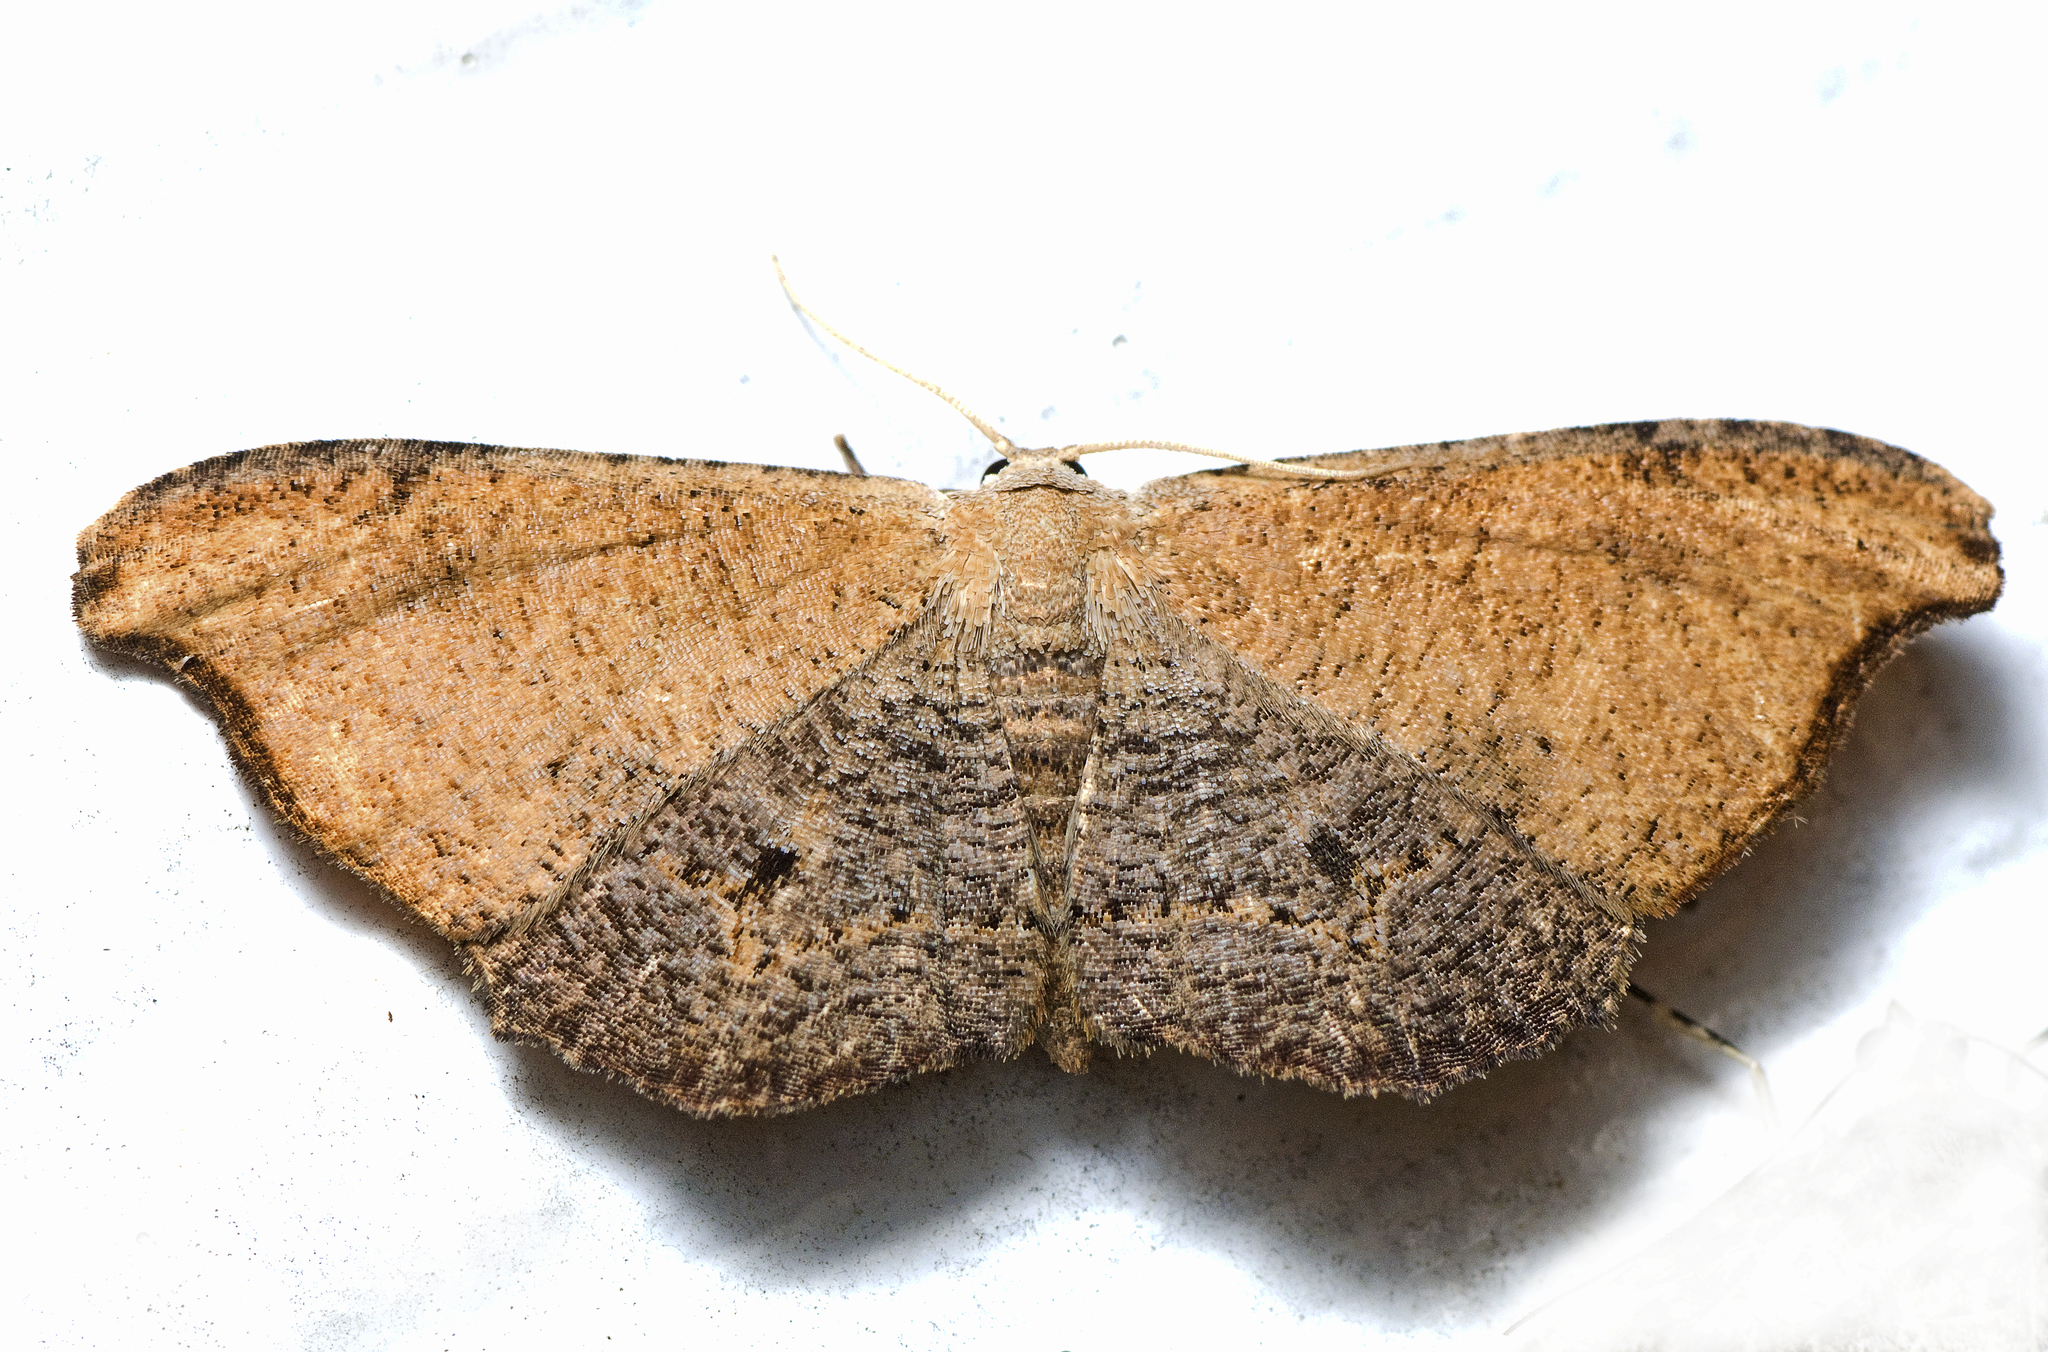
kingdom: Animalia
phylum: Arthropoda
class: Insecta
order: Lepidoptera
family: Uraniidae
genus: Epiplema
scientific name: Epiplema argillodes
